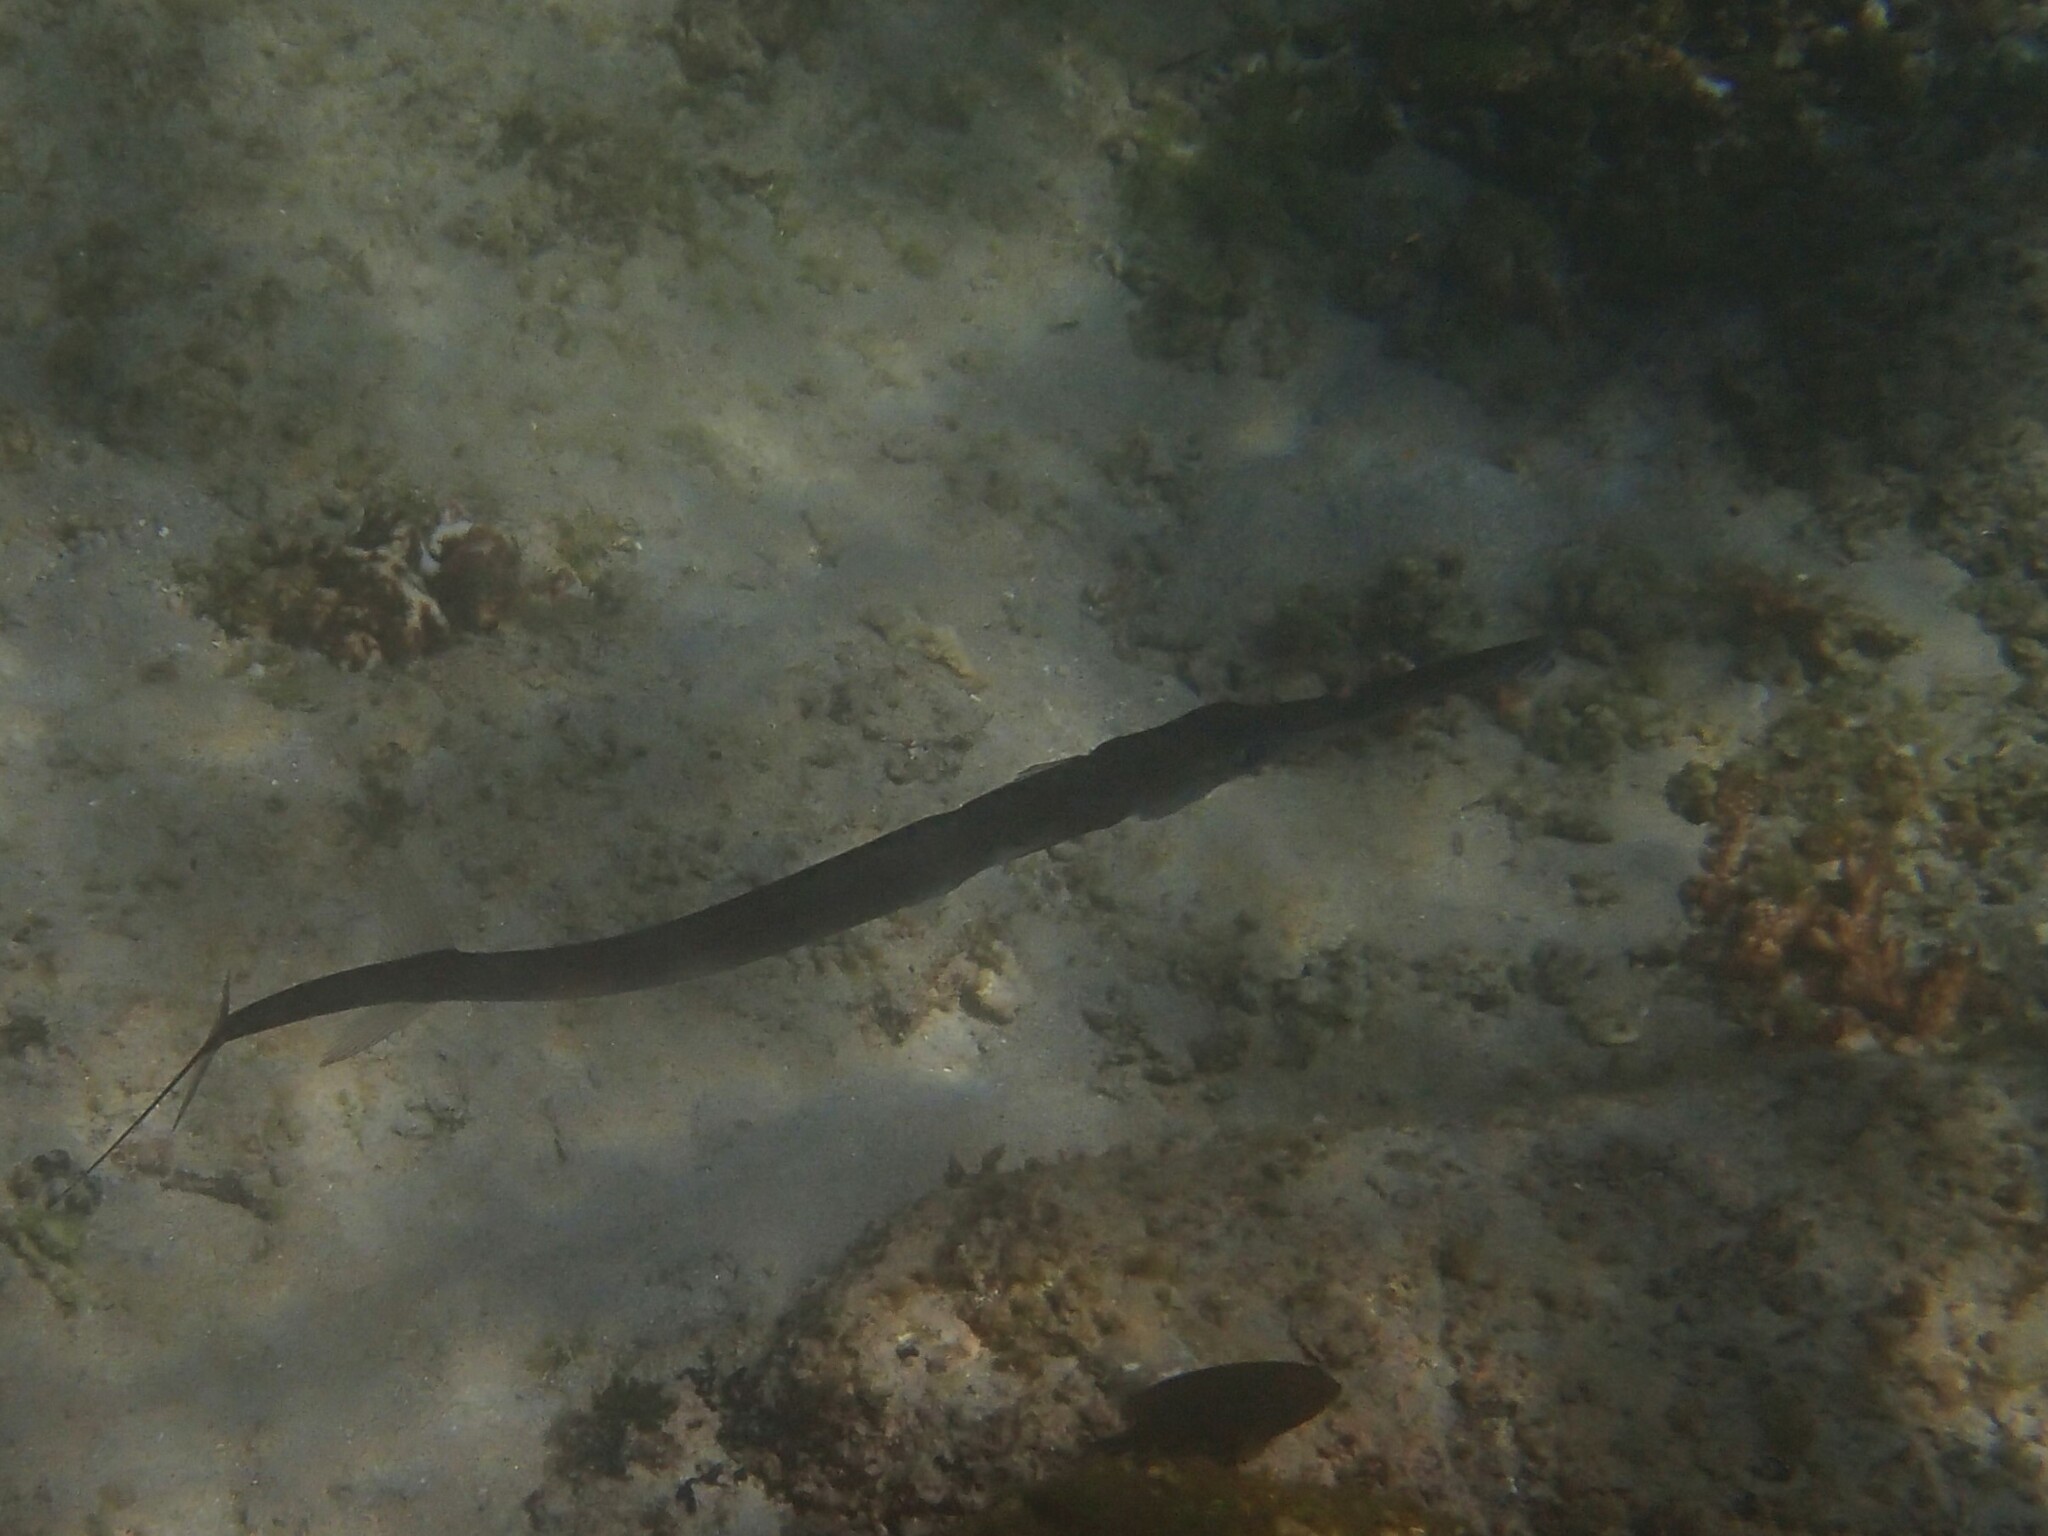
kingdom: Animalia
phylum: Chordata
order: Syngnathiformes
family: Fistulariidae
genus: Fistularia
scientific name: Fistularia commersonii
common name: Bluespotted cornetfish
